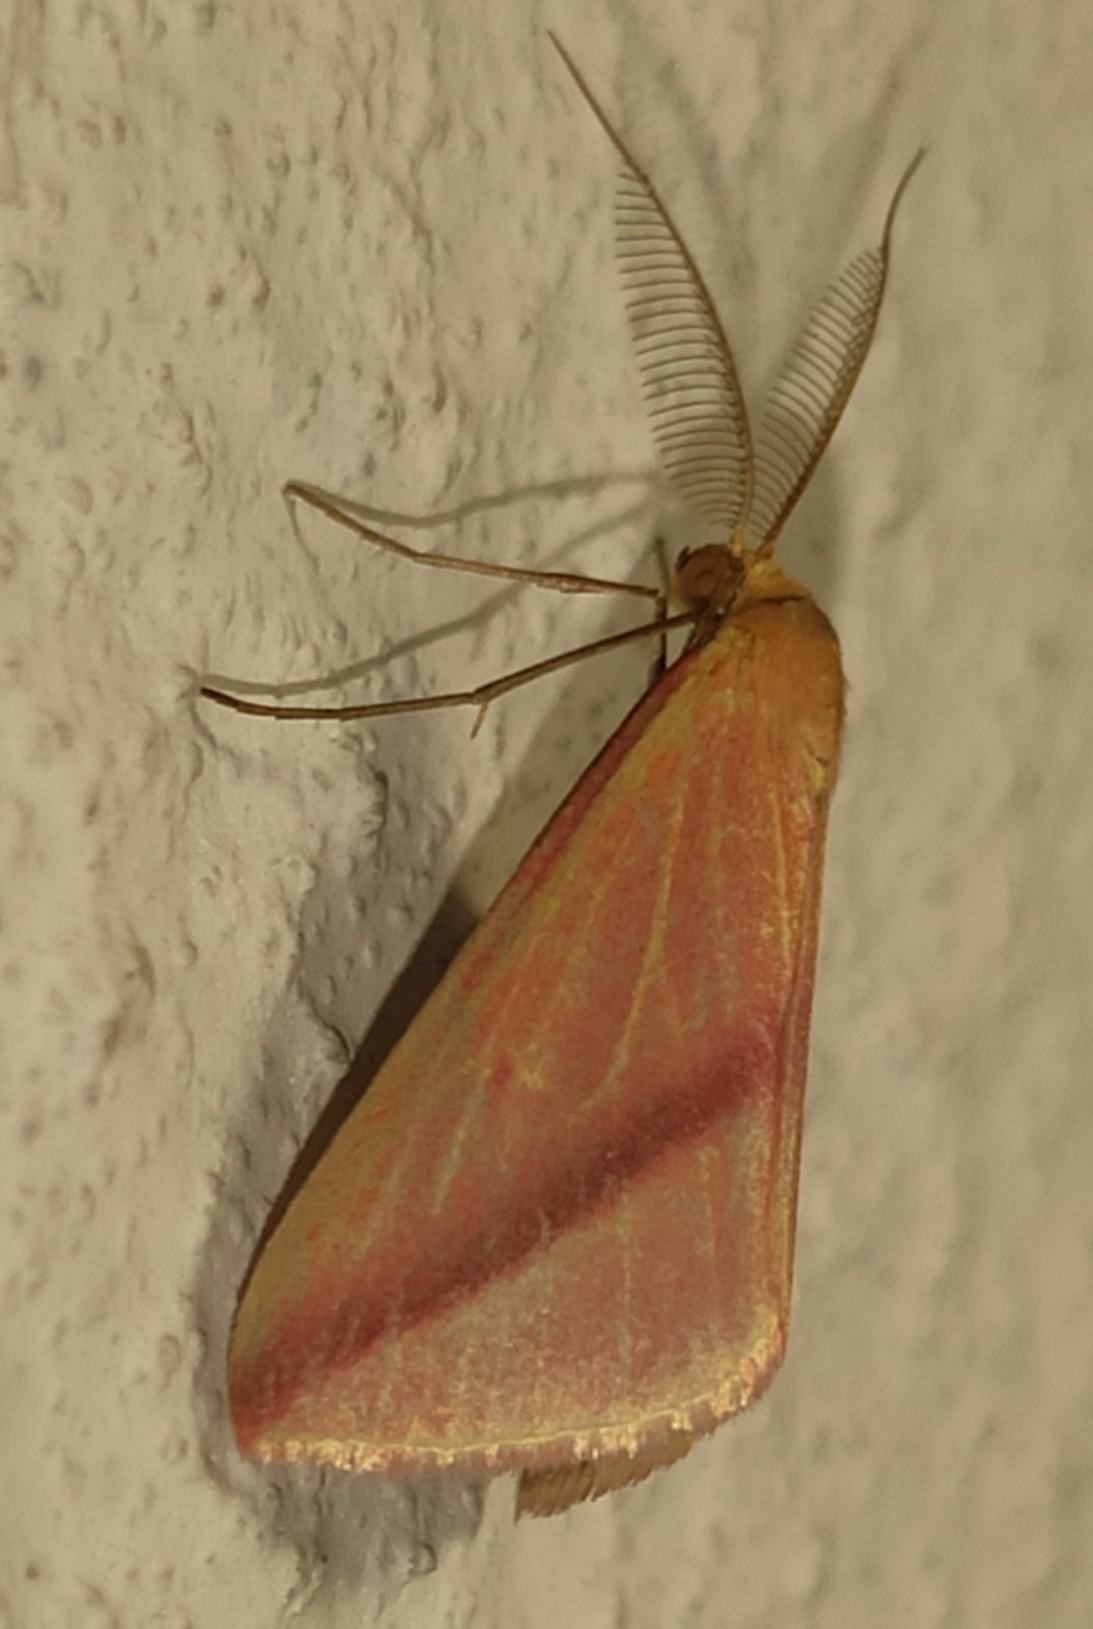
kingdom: Animalia
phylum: Arthropoda
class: Insecta
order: Lepidoptera
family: Geometridae
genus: Rhodometra
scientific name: Rhodometra sacraria
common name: Vestal
